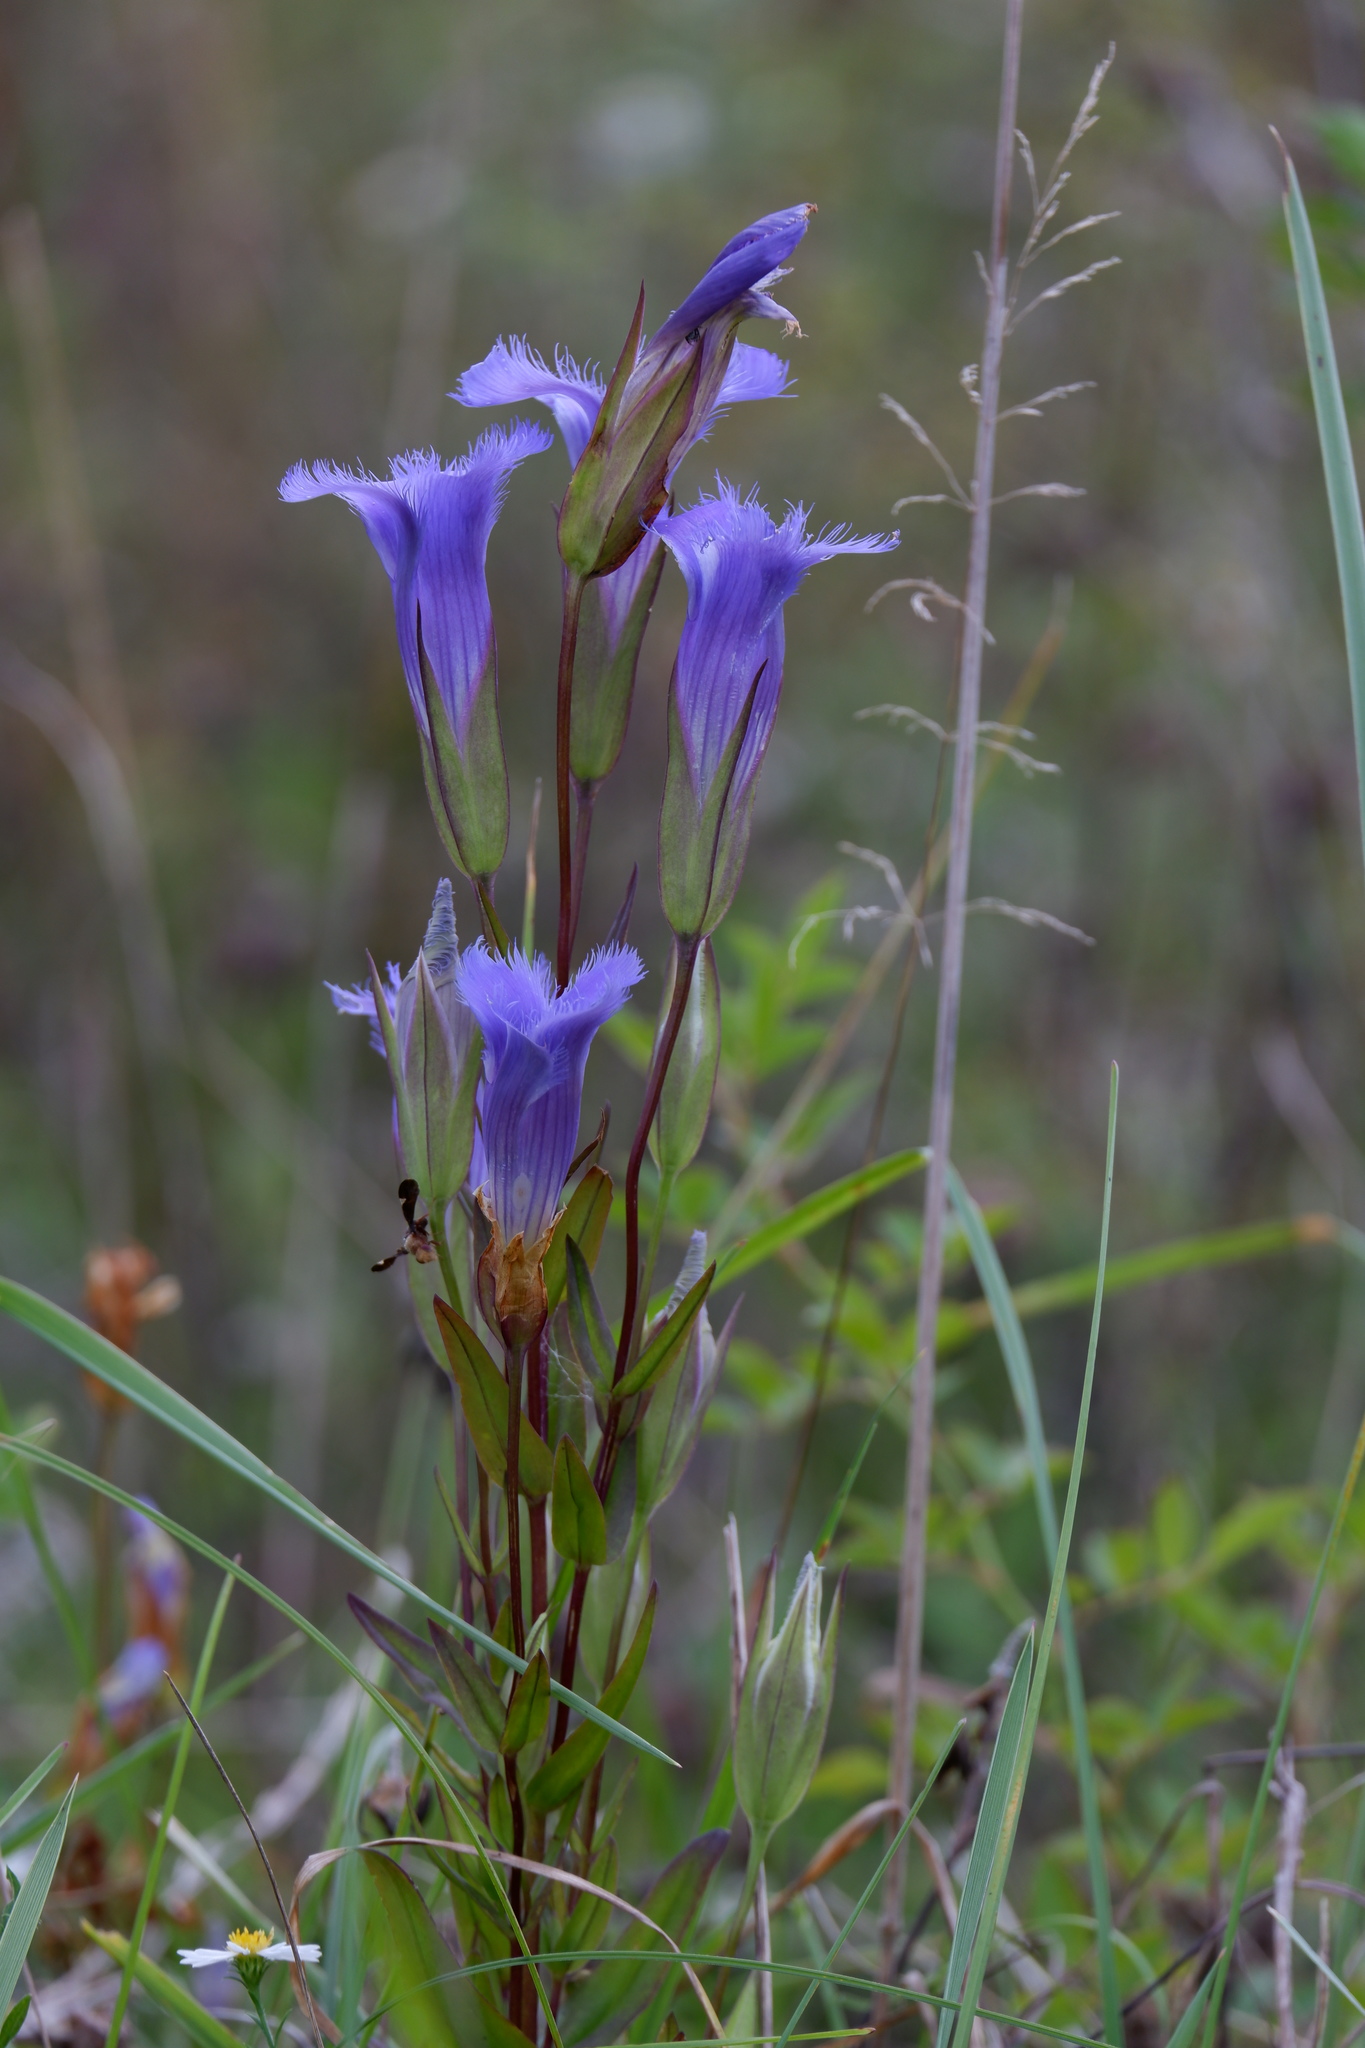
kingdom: Plantae
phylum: Tracheophyta
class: Magnoliopsida
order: Gentianales
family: Gentianaceae
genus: Gentianopsis
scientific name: Gentianopsis crinita
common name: Fringed-gentian
